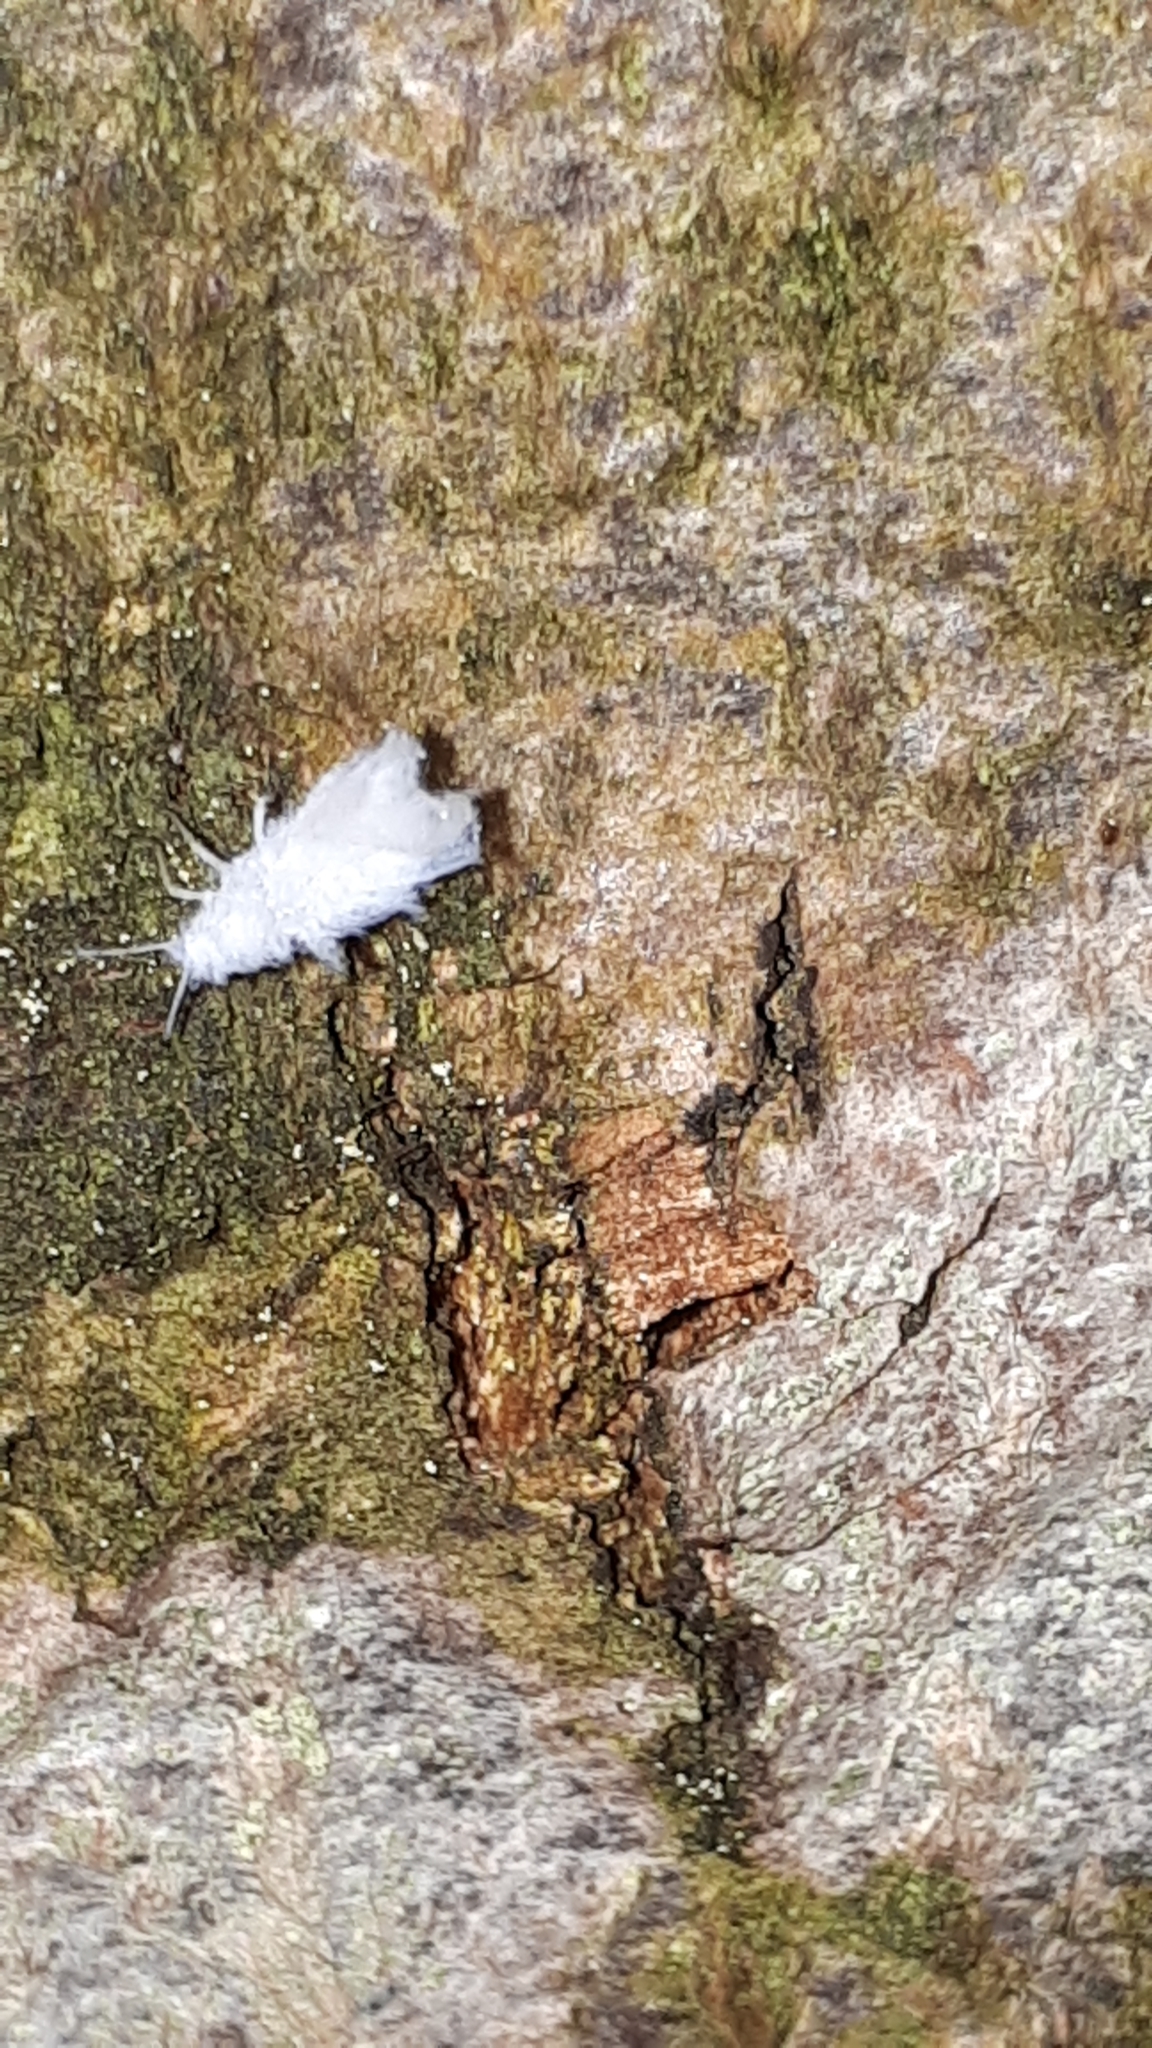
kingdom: Animalia
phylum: Arthropoda
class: Insecta
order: Hemiptera
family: Aphididae
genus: Phyllaphis
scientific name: Phyllaphis fagi
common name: Beech aphid
